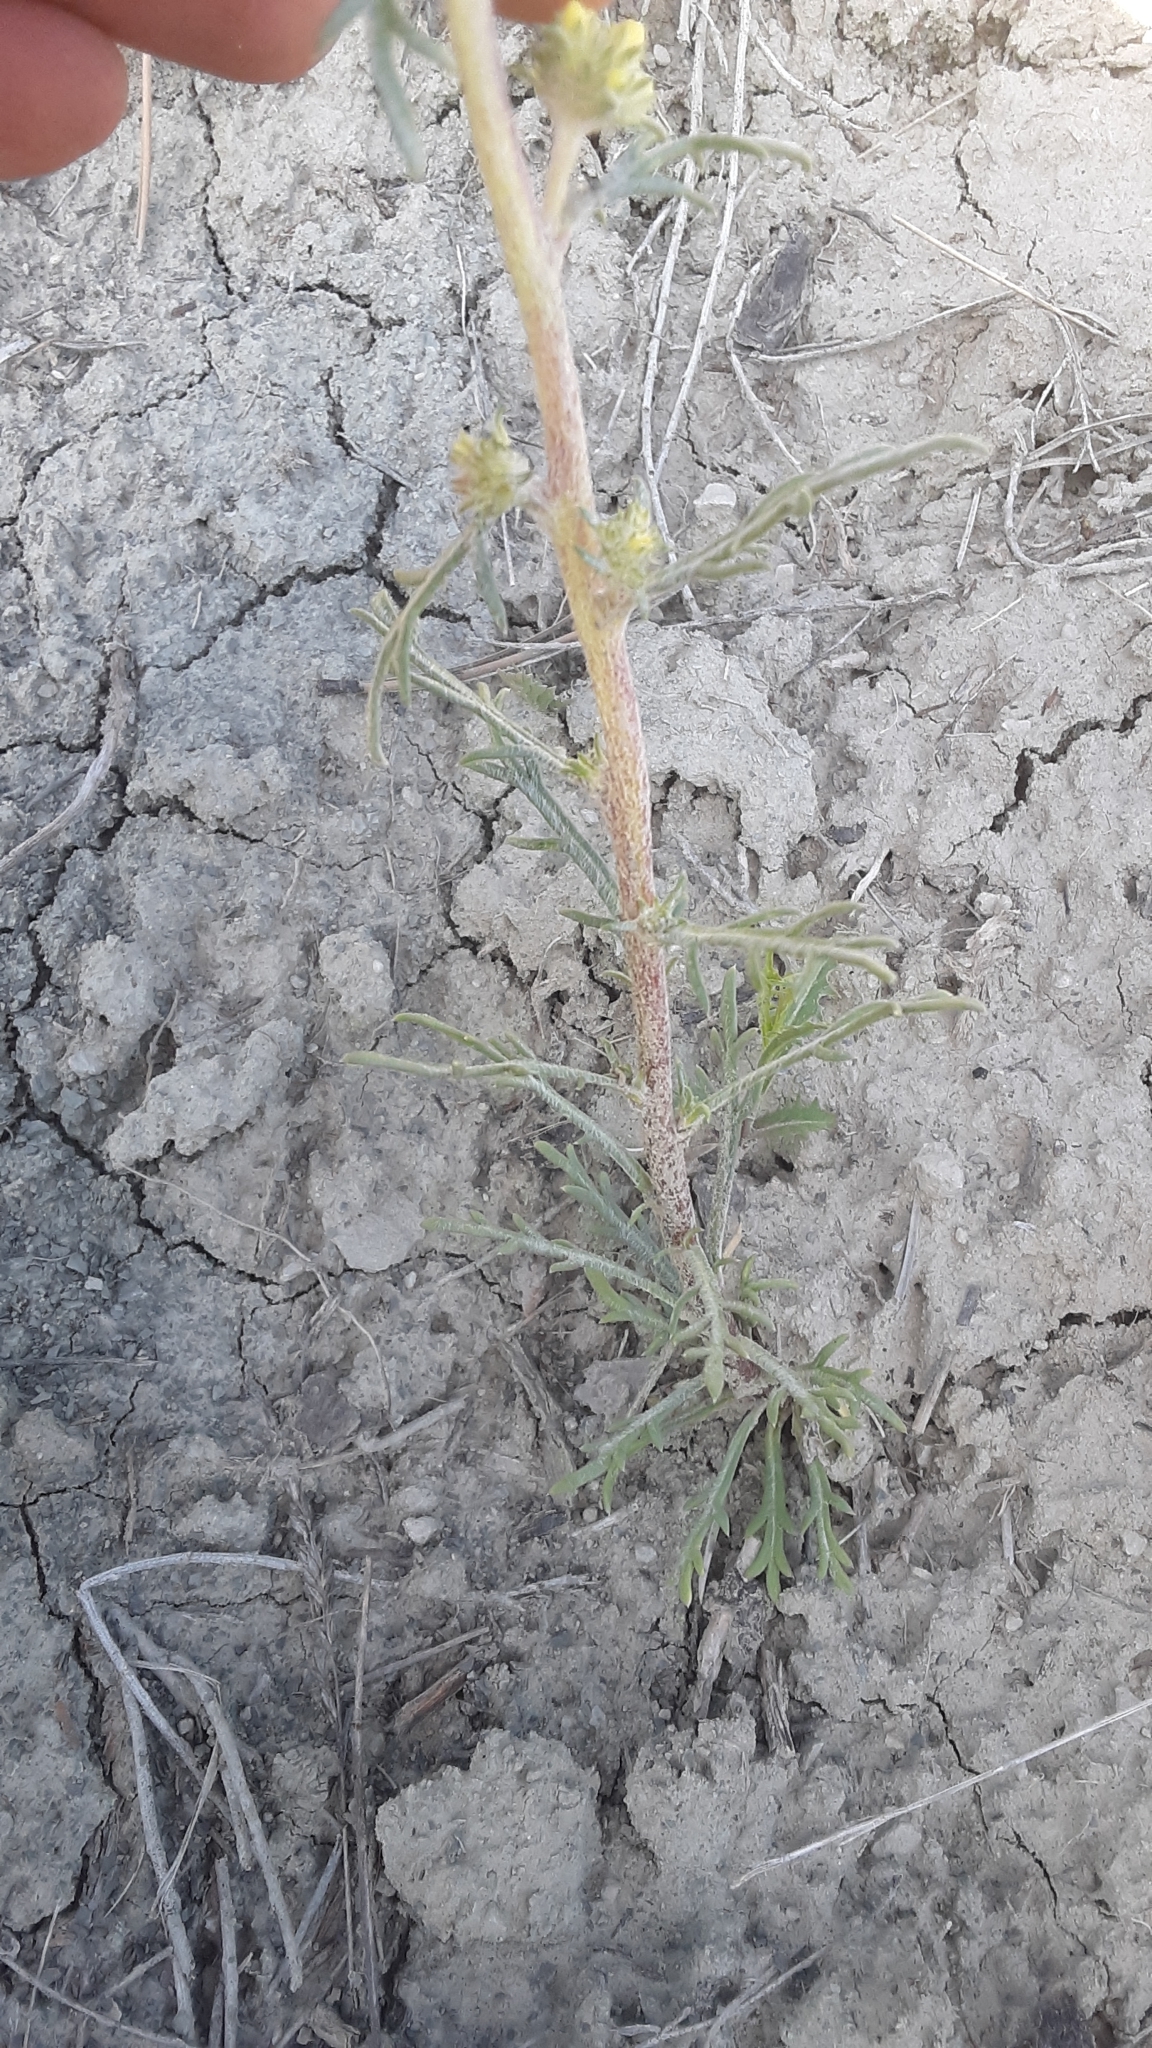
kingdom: Plantae
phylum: Tracheophyta
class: Magnoliopsida
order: Ericales
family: Polemoniaceae
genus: Ipomopsis
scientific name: Ipomopsis spicata
